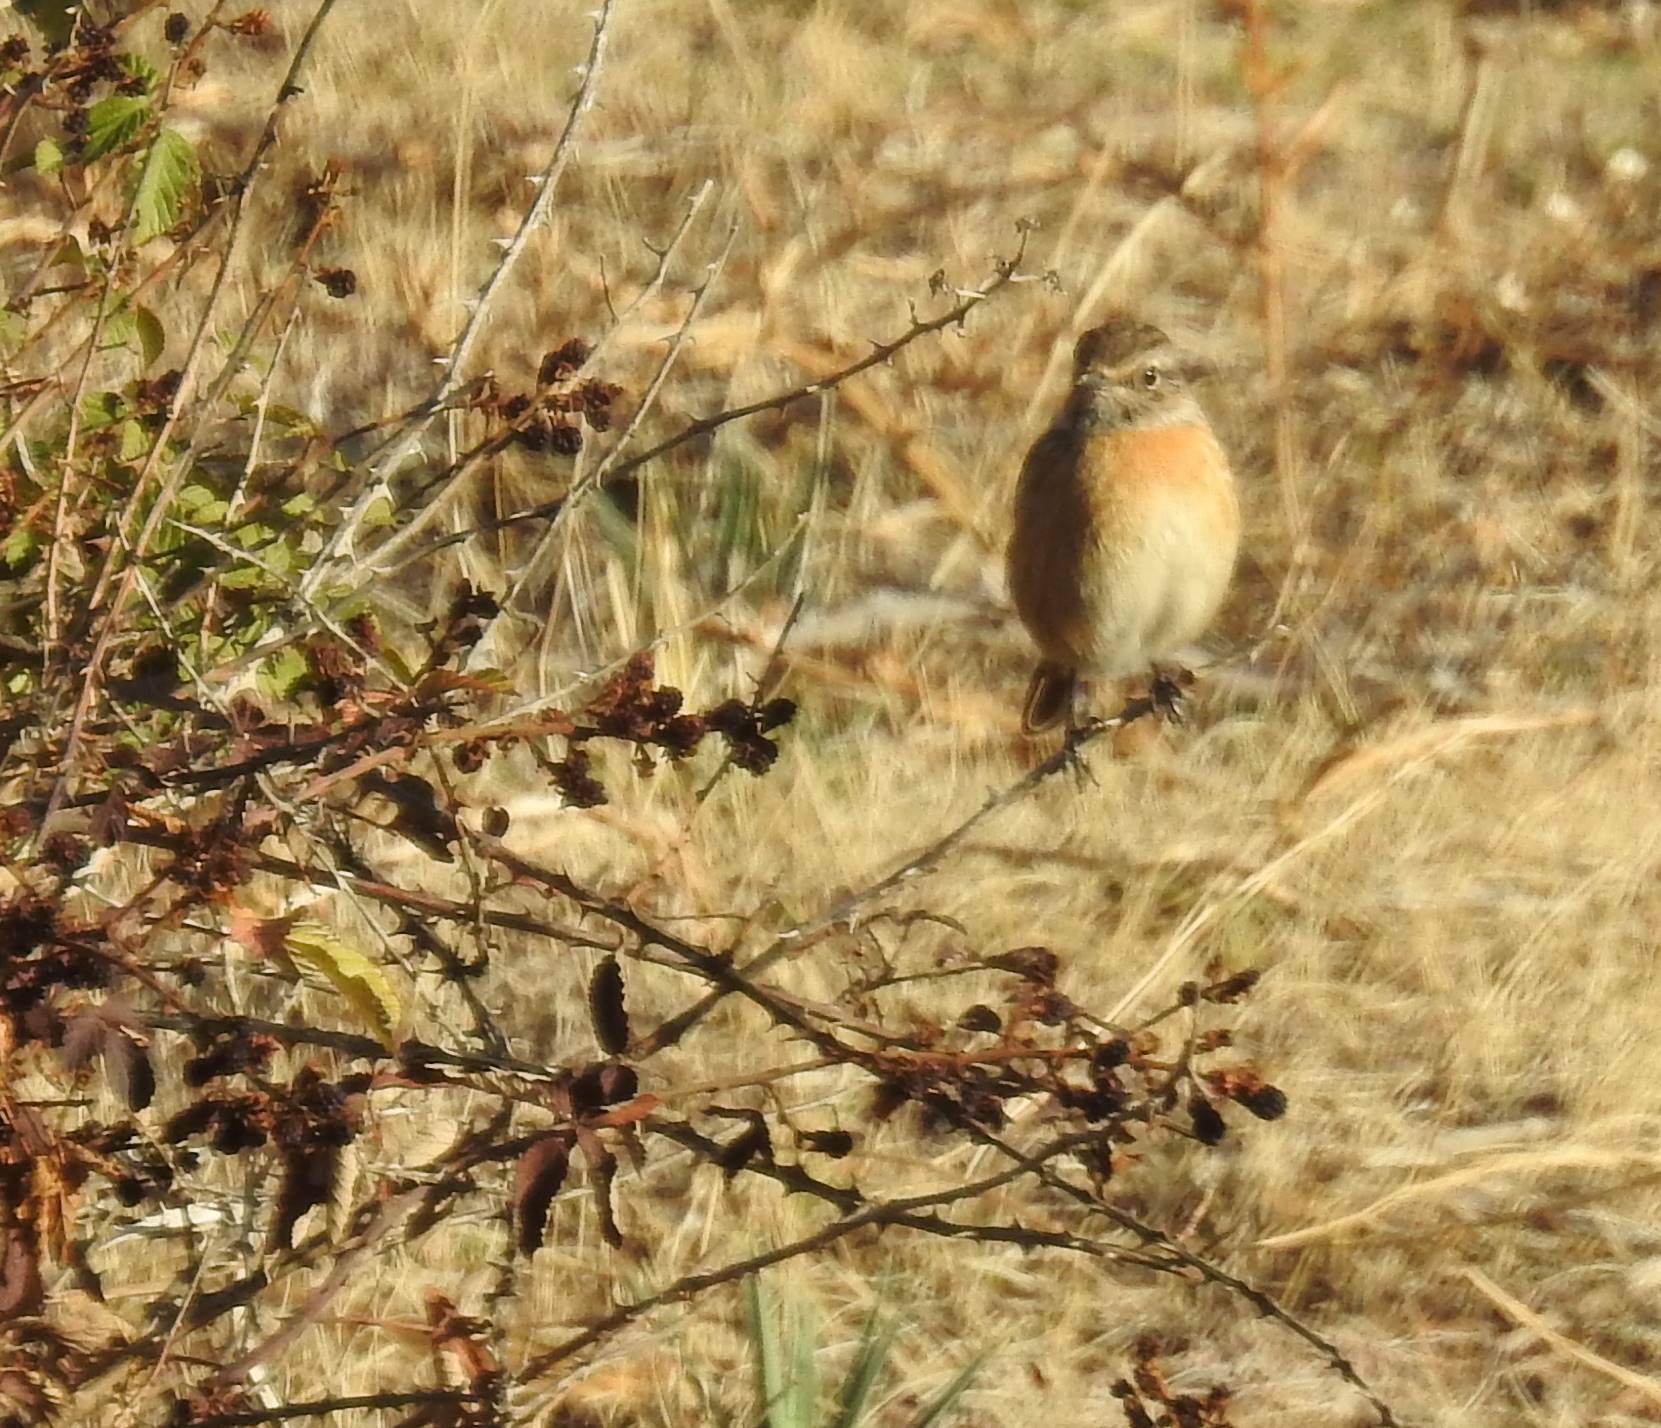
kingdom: Animalia
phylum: Chordata
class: Aves
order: Passeriformes
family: Muscicapidae
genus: Saxicola
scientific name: Saxicola rubicola
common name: European stonechat
